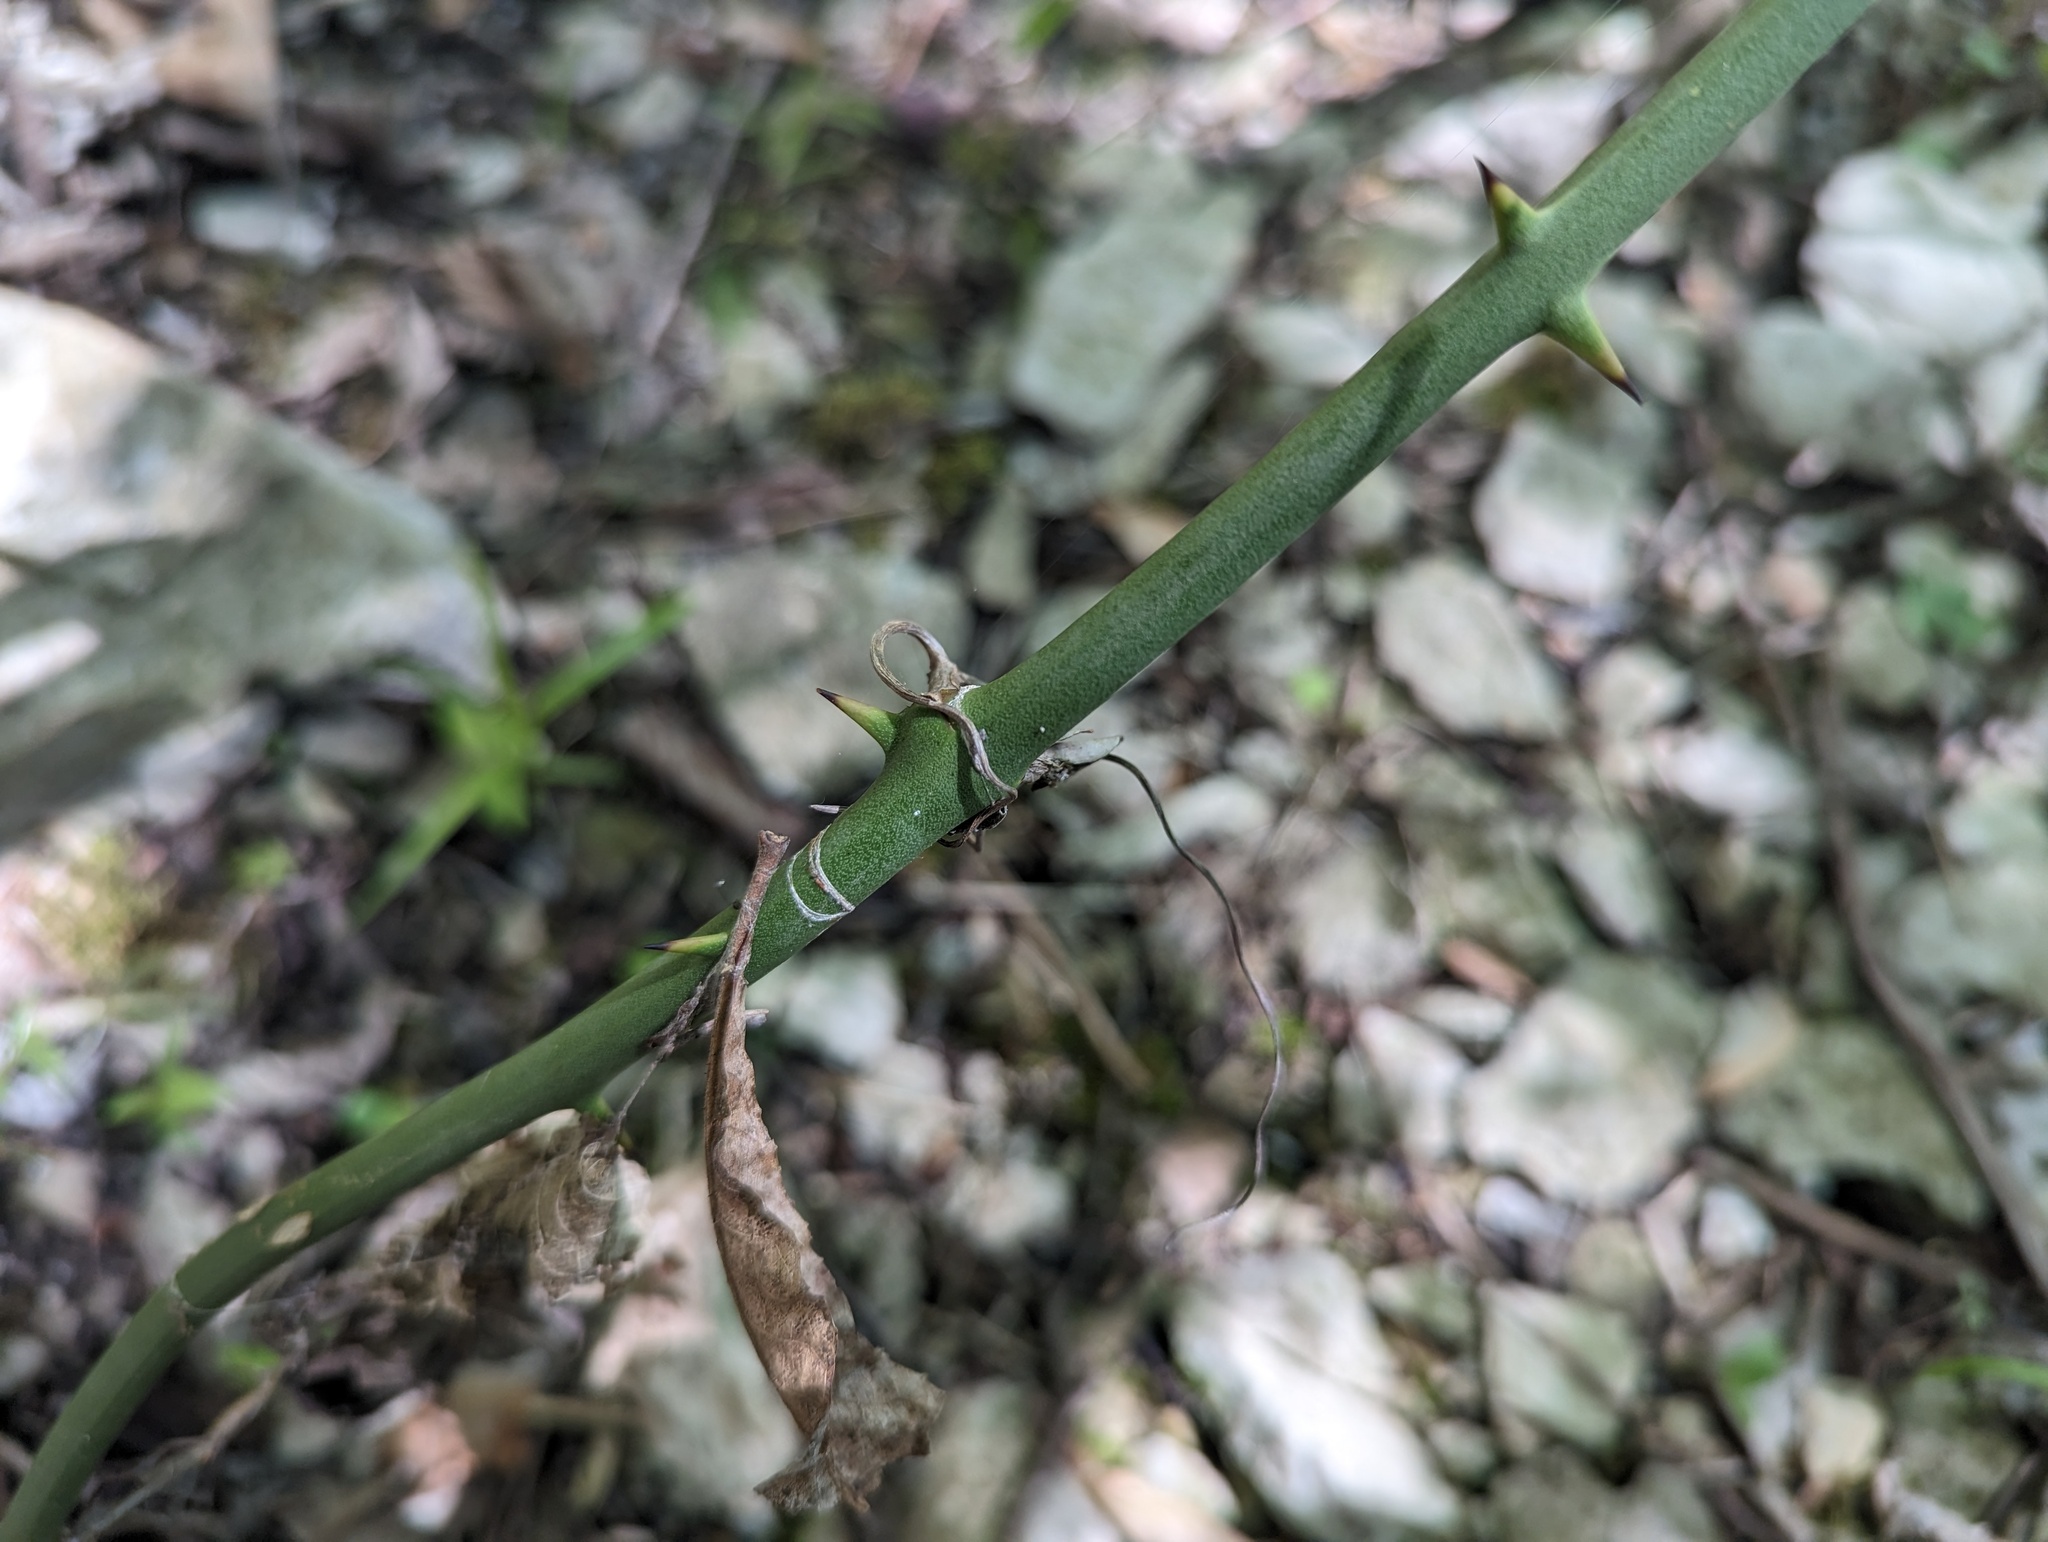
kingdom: Plantae
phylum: Tracheophyta
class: Liliopsida
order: Liliales
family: Smilacaceae
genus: Smilax
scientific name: Smilax rotundifolia
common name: Bullbriar
